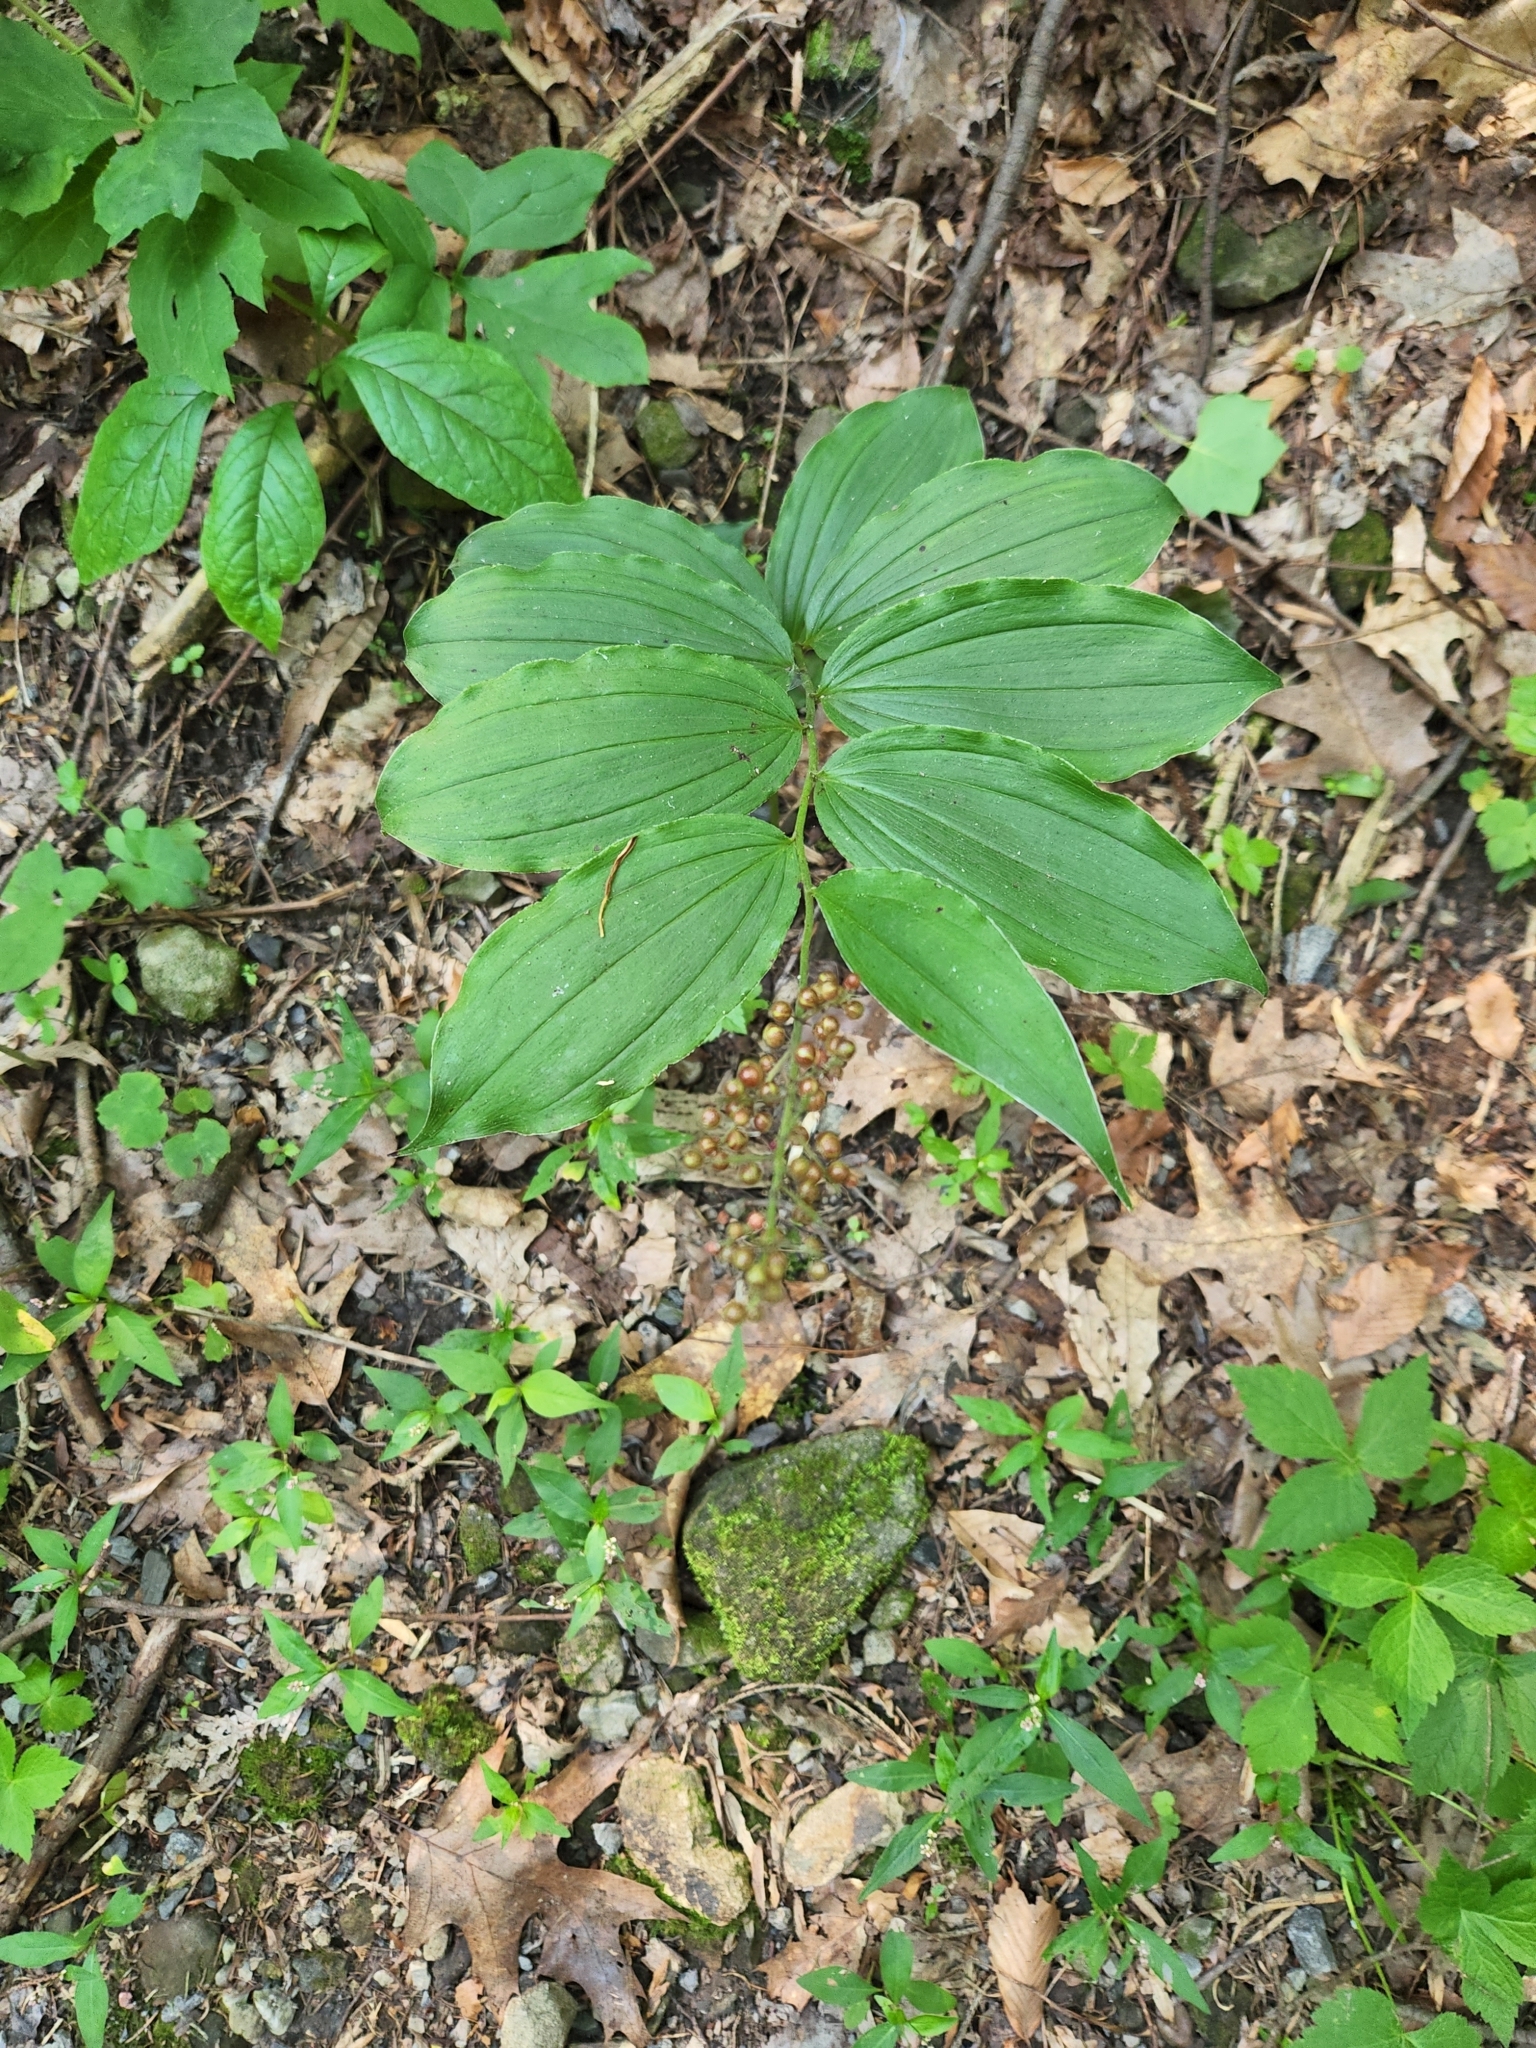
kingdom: Plantae
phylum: Tracheophyta
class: Liliopsida
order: Asparagales
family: Asparagaceae
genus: Maianthemum
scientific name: Maianthemum racemosum
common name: False spikenard
